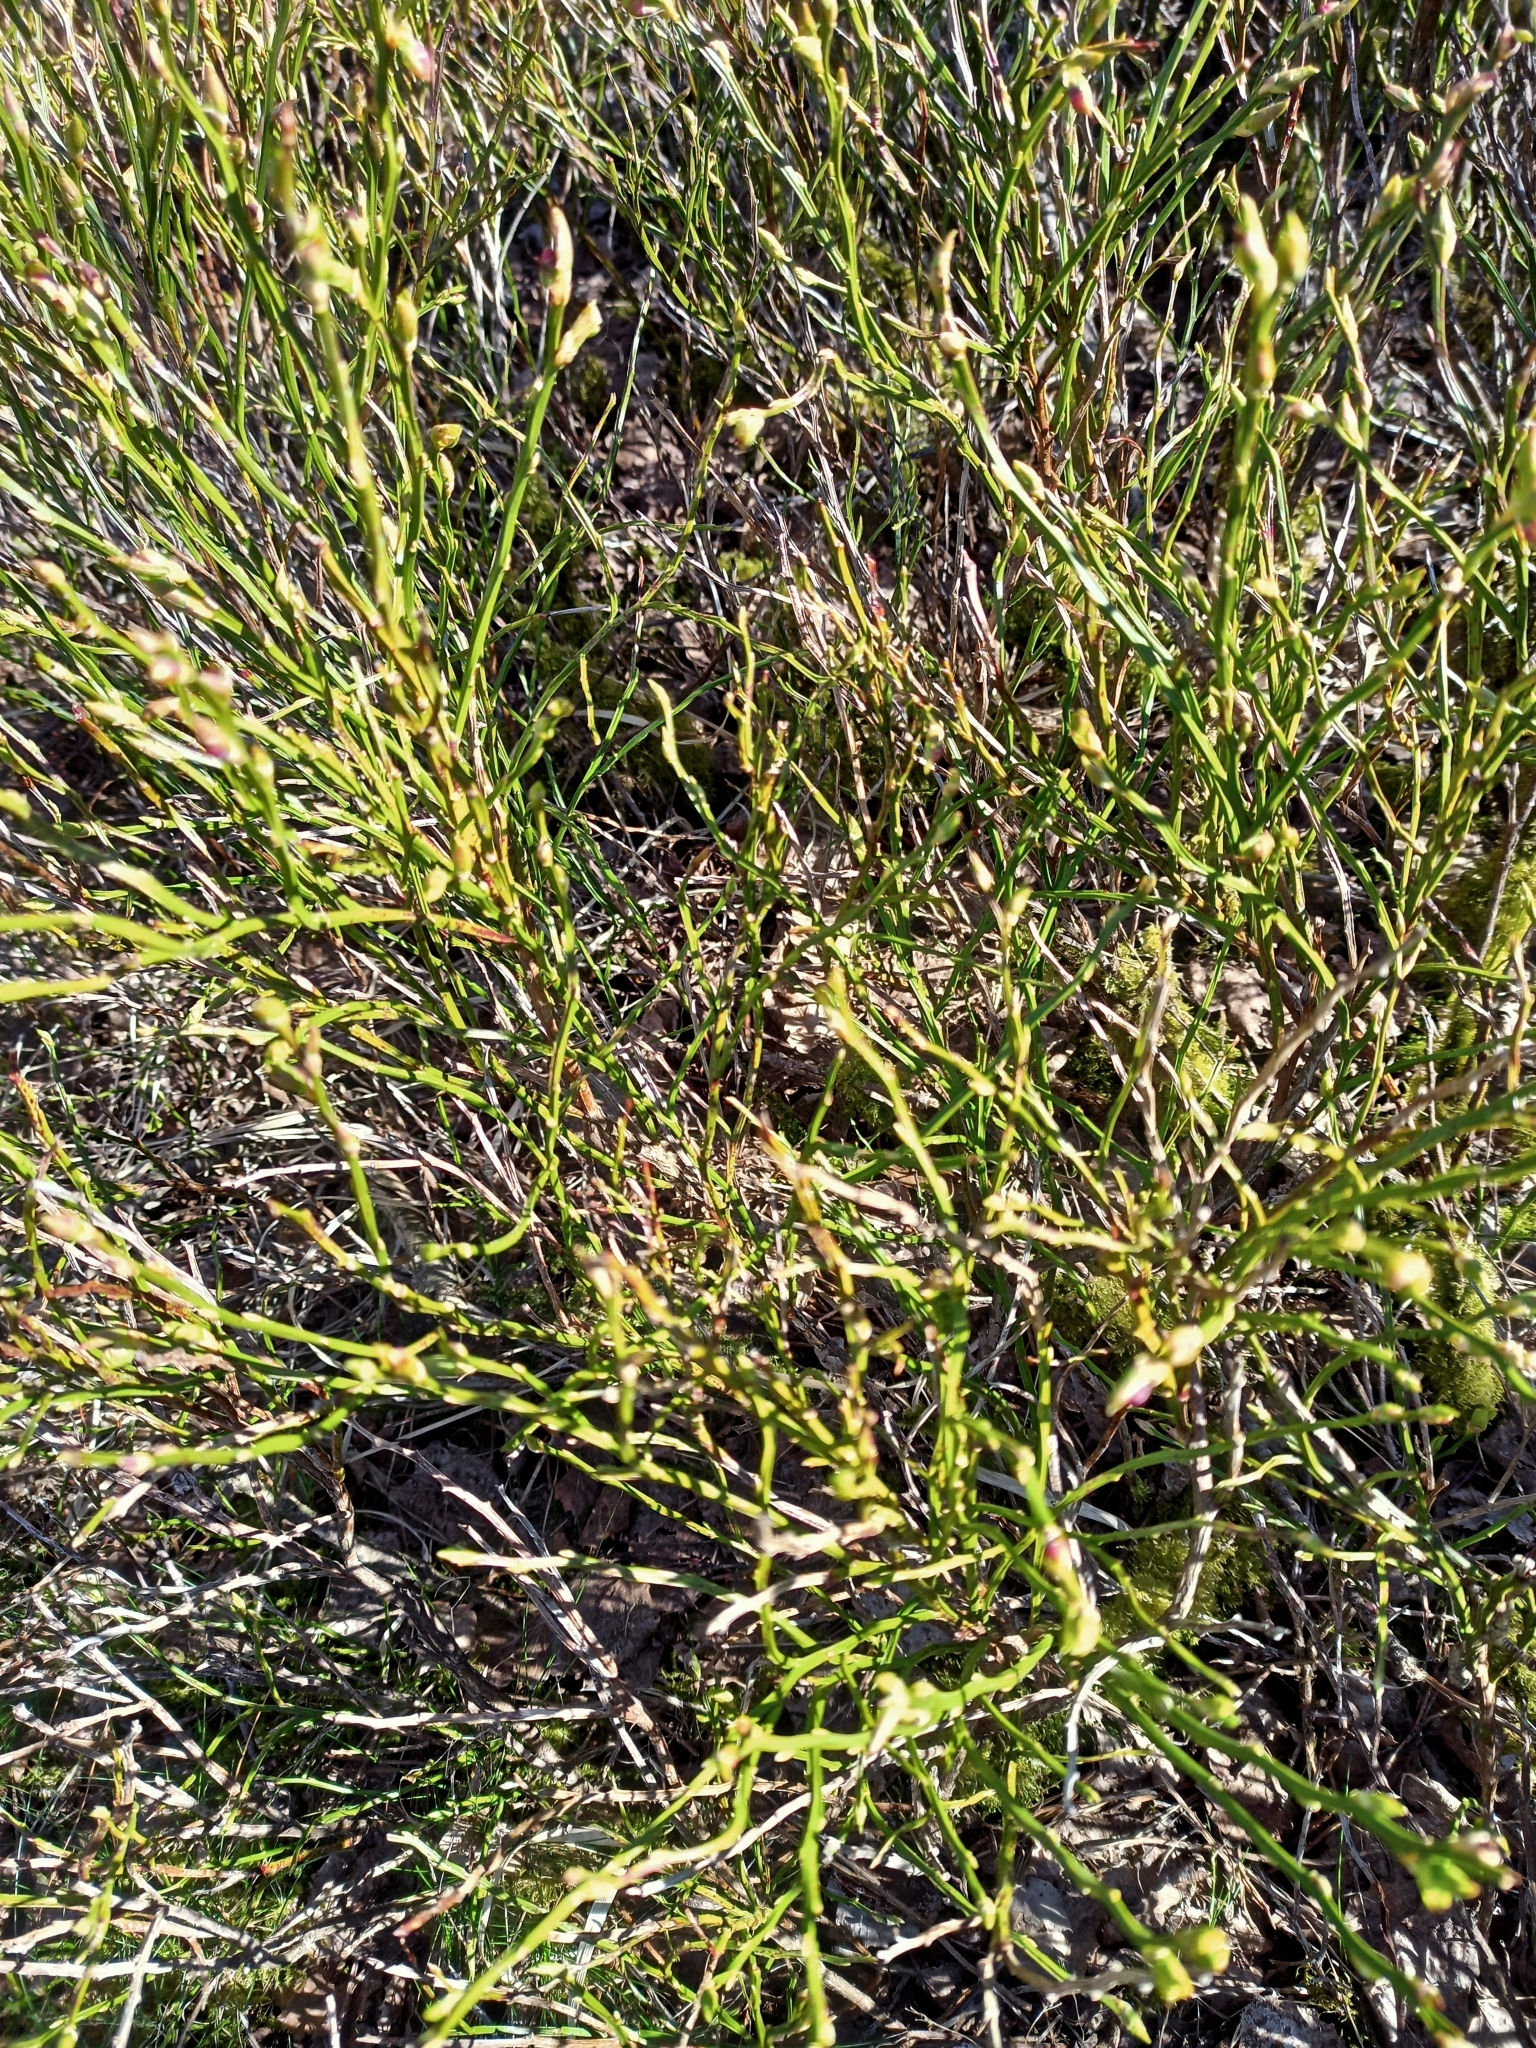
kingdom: Plantae
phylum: Tracheophyta
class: Magnoliopsida
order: Ericales
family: Ericaceae
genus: Vaccinium
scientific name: Vaccinium myrtillus
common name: Bilberry
